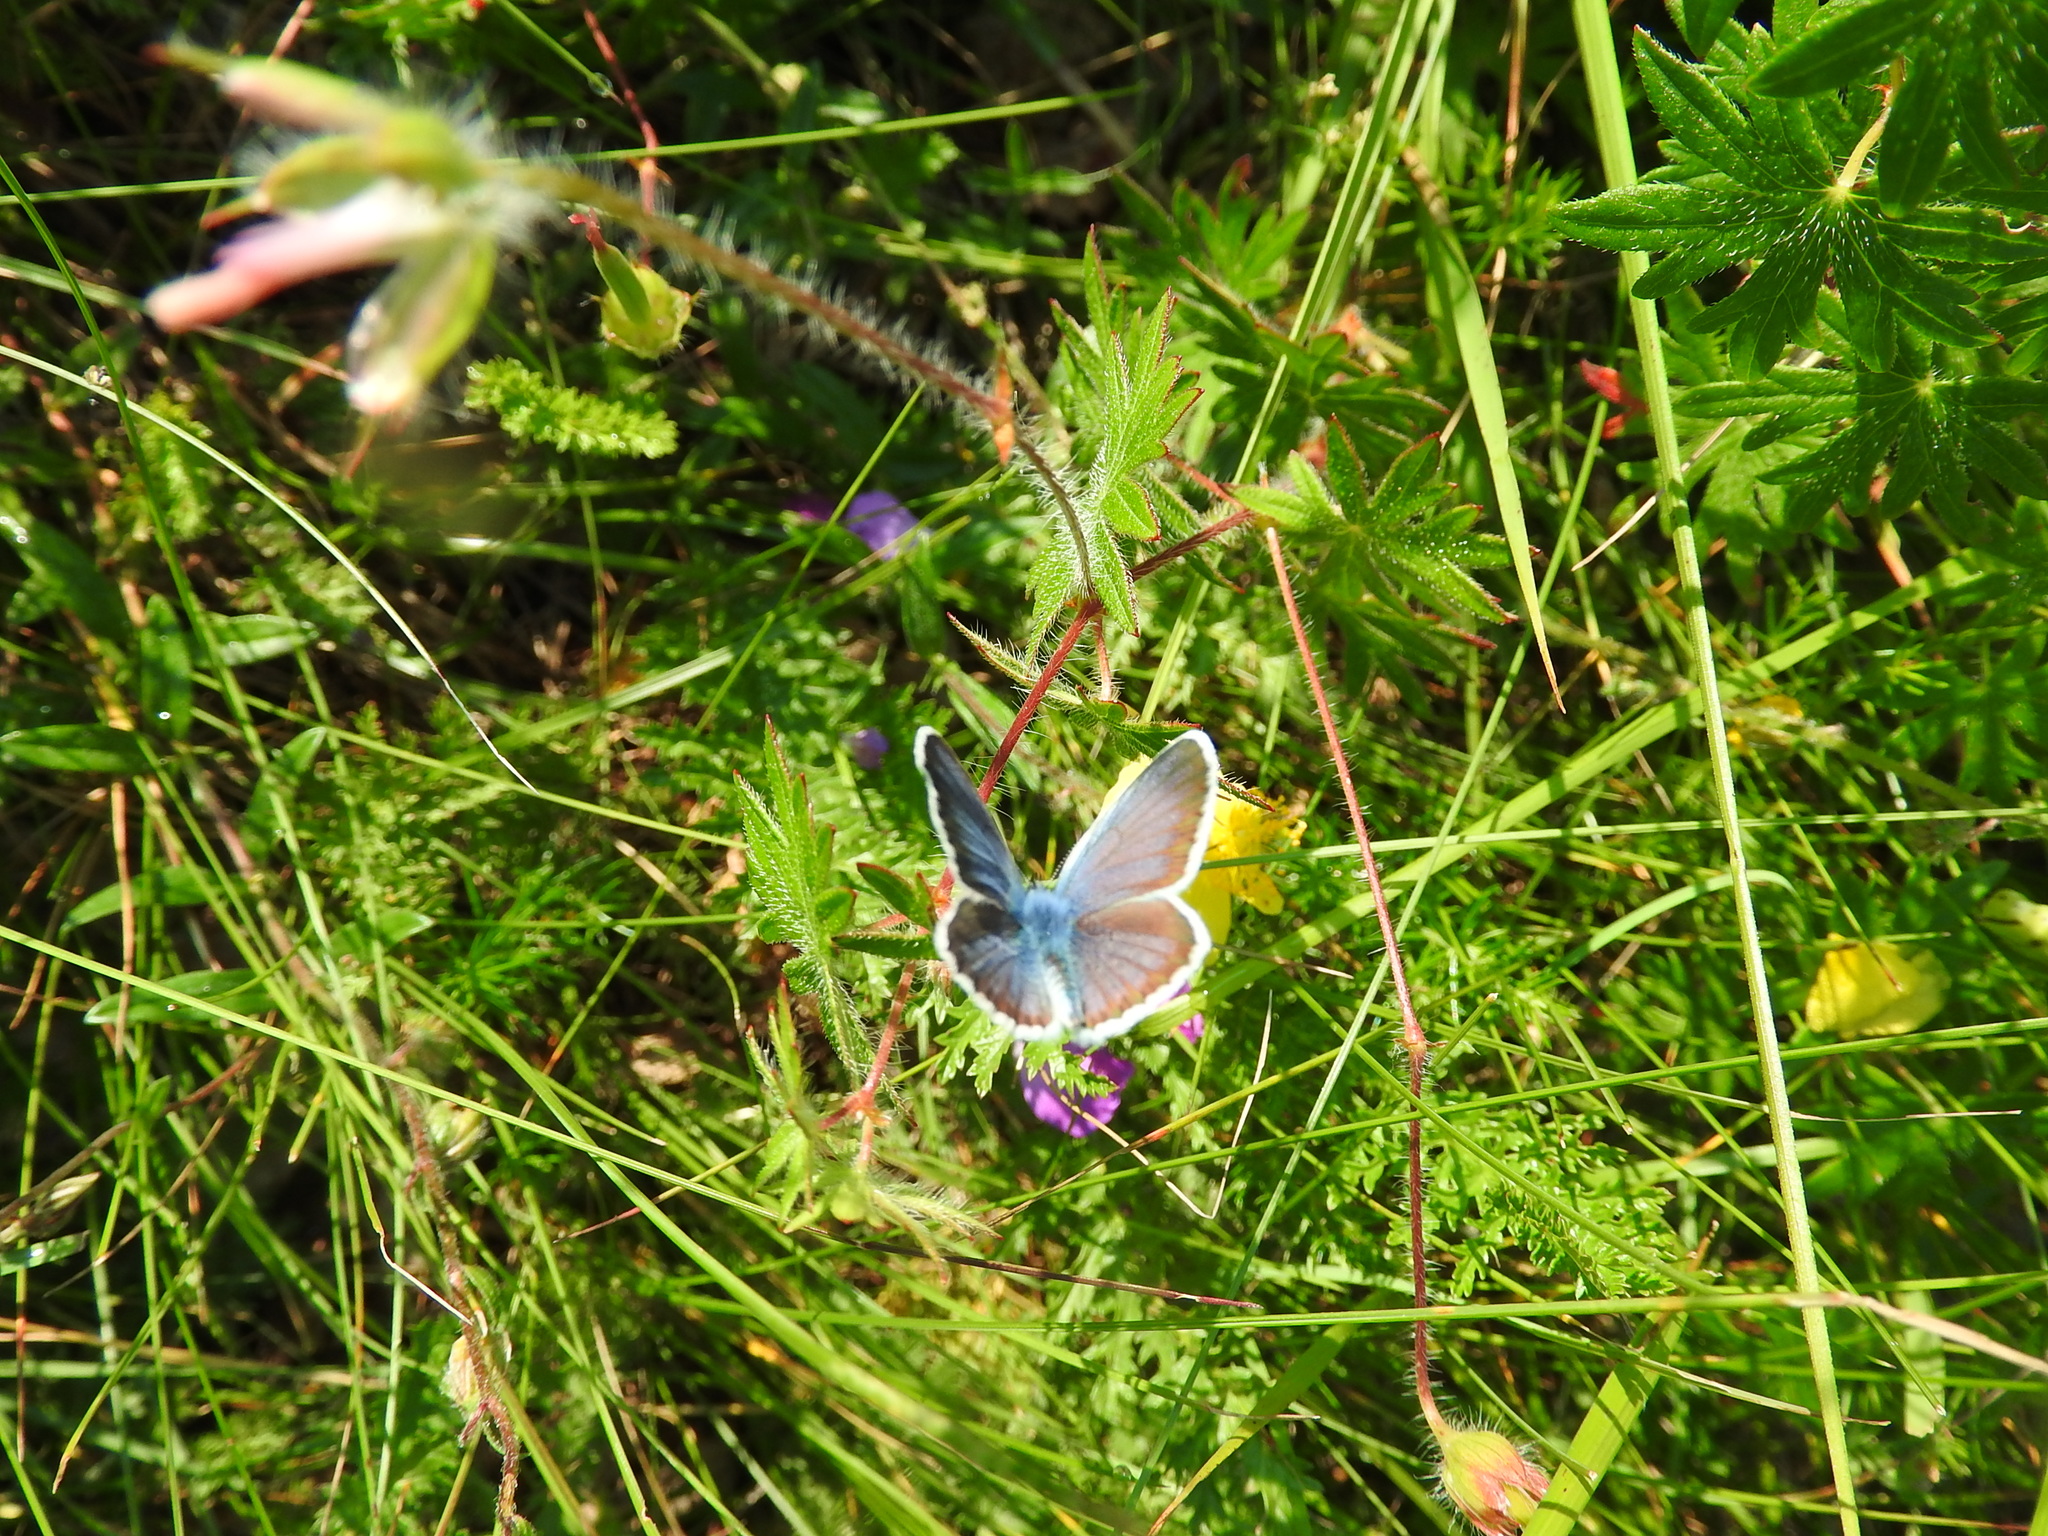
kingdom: Animalia
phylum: Arthropoda
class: Insecta
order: Lepidoptera
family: Lycaenidae
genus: Plebejus
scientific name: Plebejus argus
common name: Silver-studded blue
